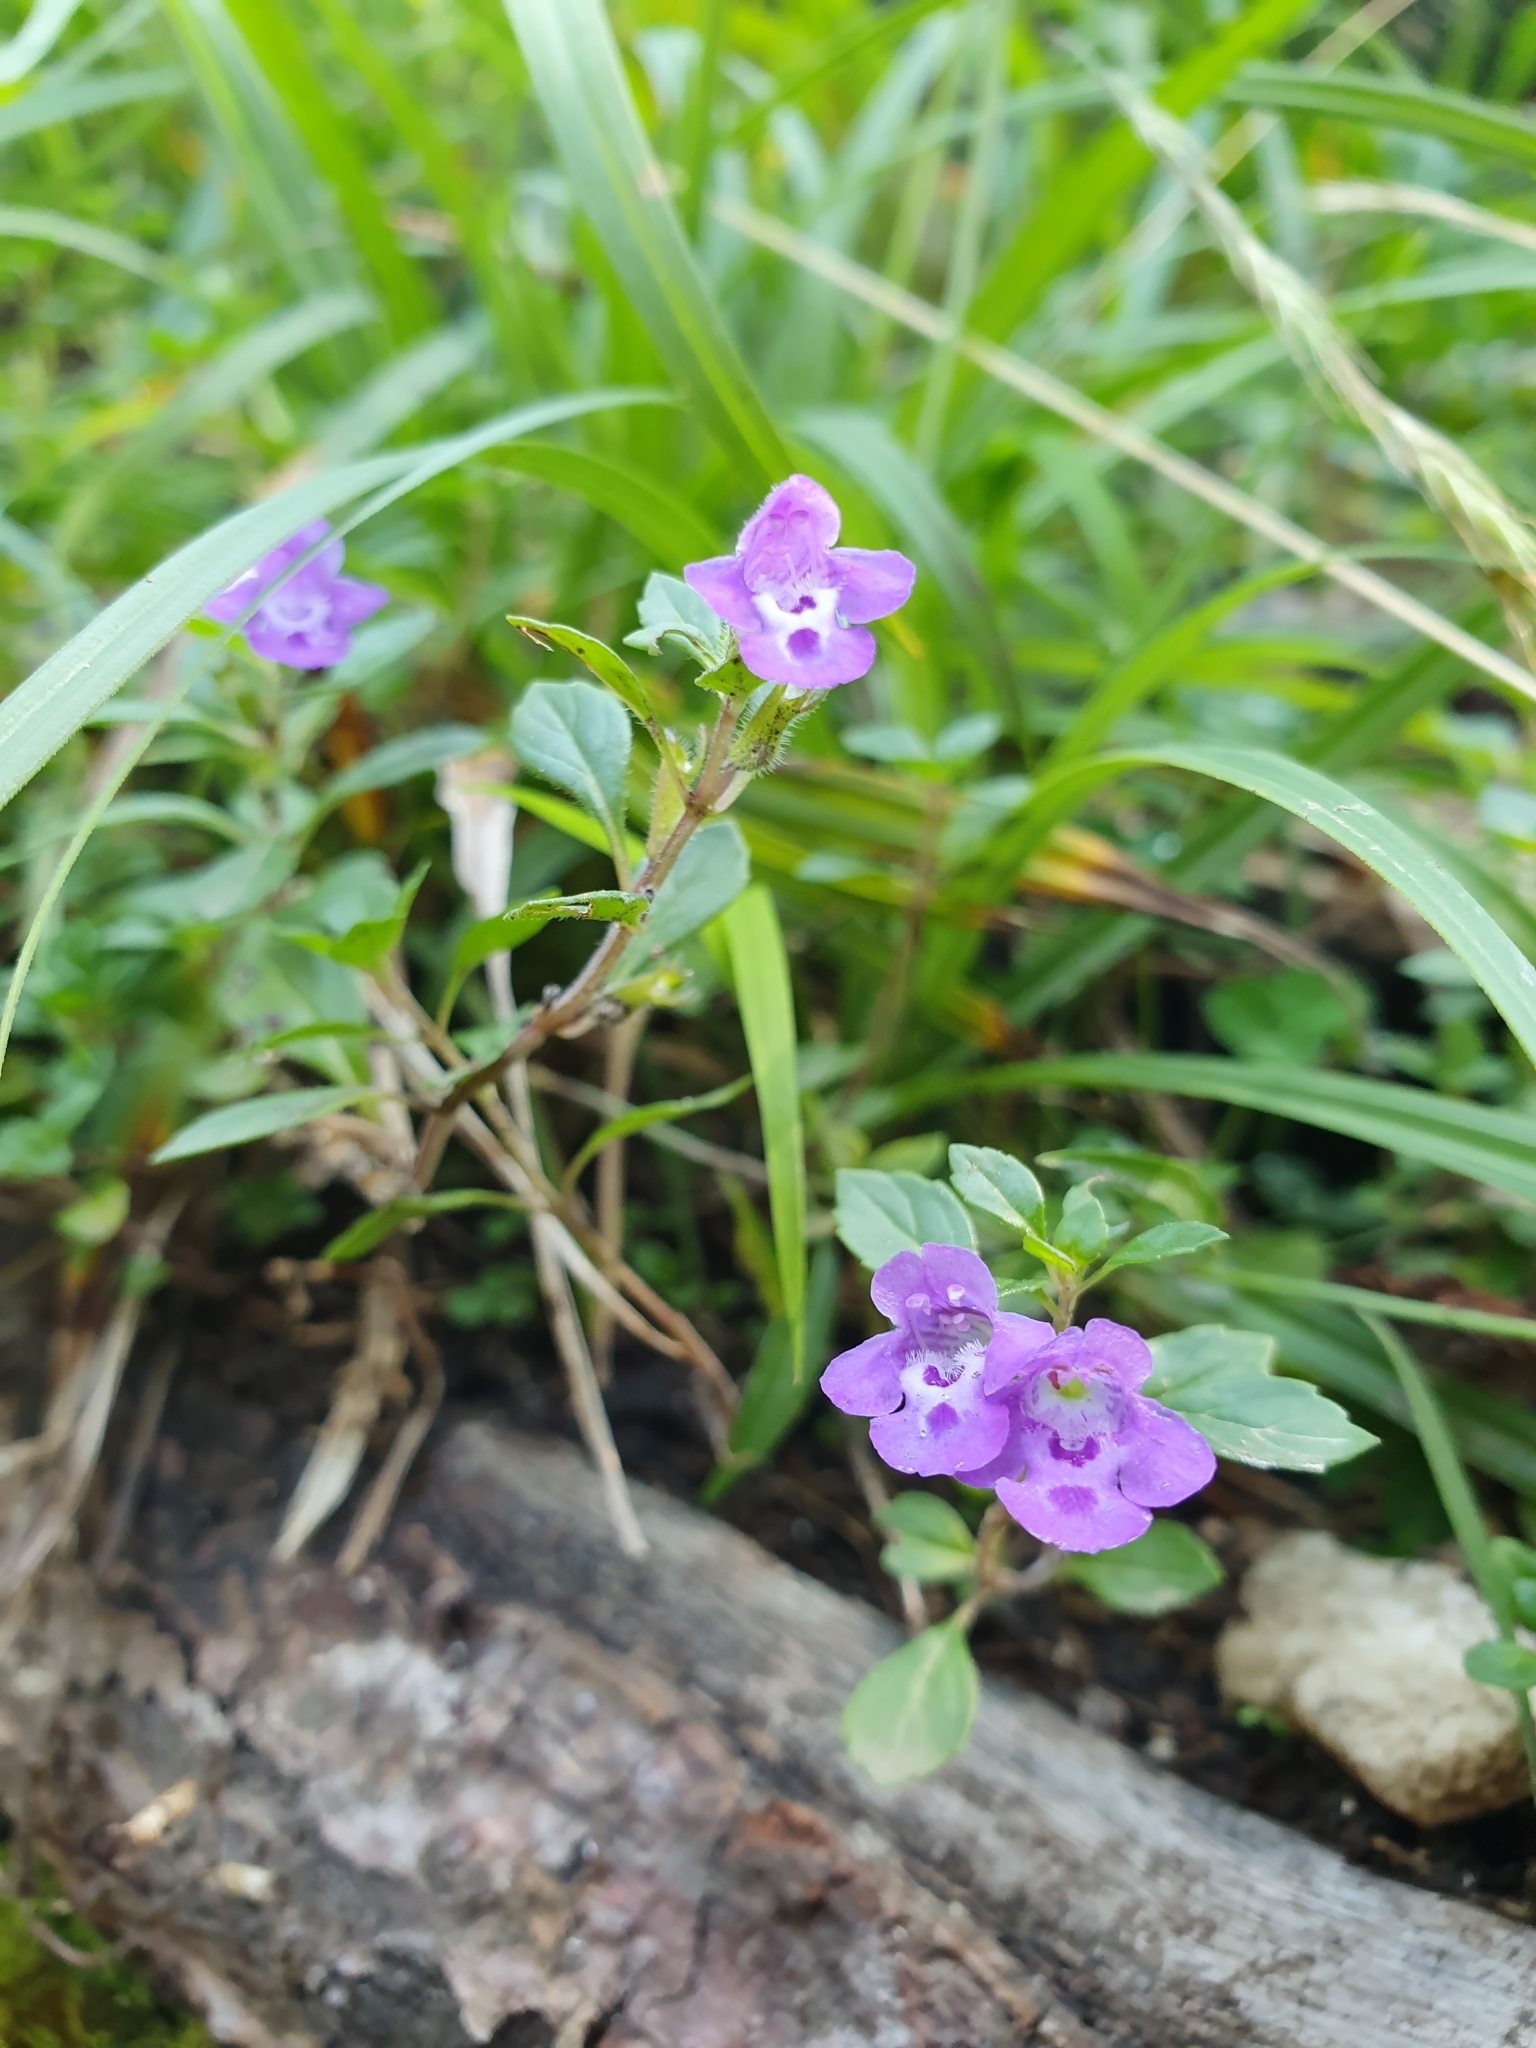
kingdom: Plantae
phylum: Tracheophyta
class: Magnoliopsida
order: Lamiales
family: Lamiaceae
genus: Clinopodium
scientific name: Clinopodium alpinum
